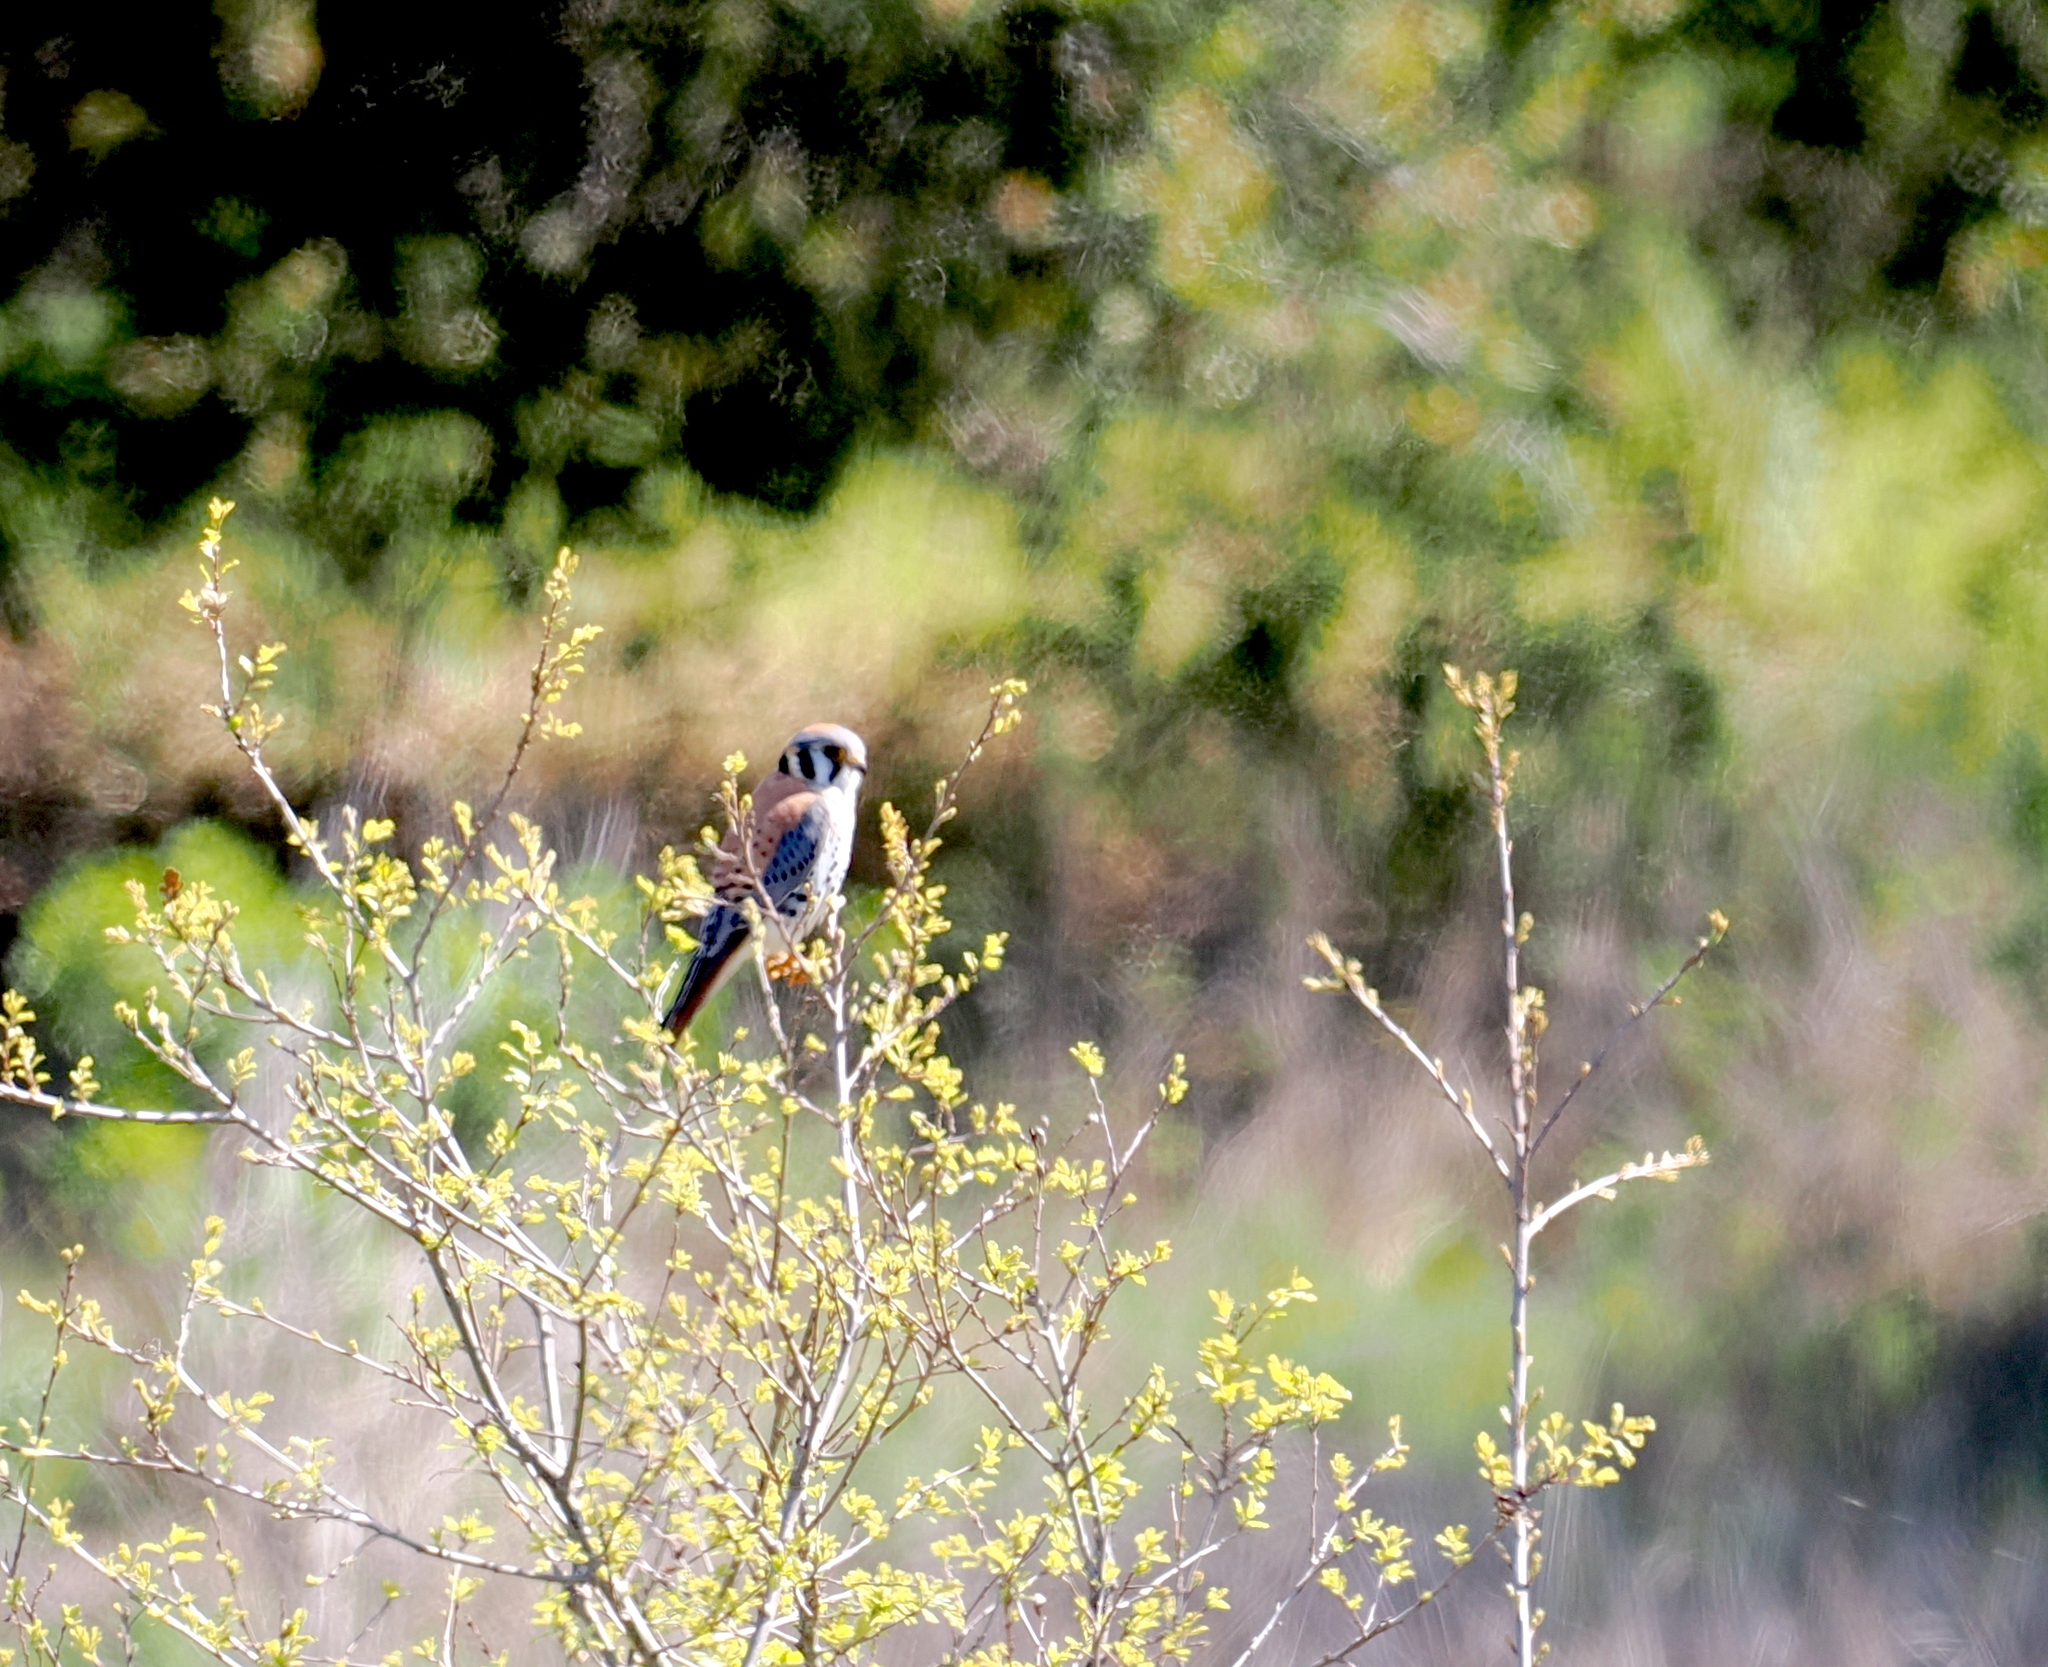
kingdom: Animalia
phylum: Chordata
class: Aves
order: Falconiformes
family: Falconidae
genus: Falco
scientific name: Falco sparverius
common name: American kestrel
